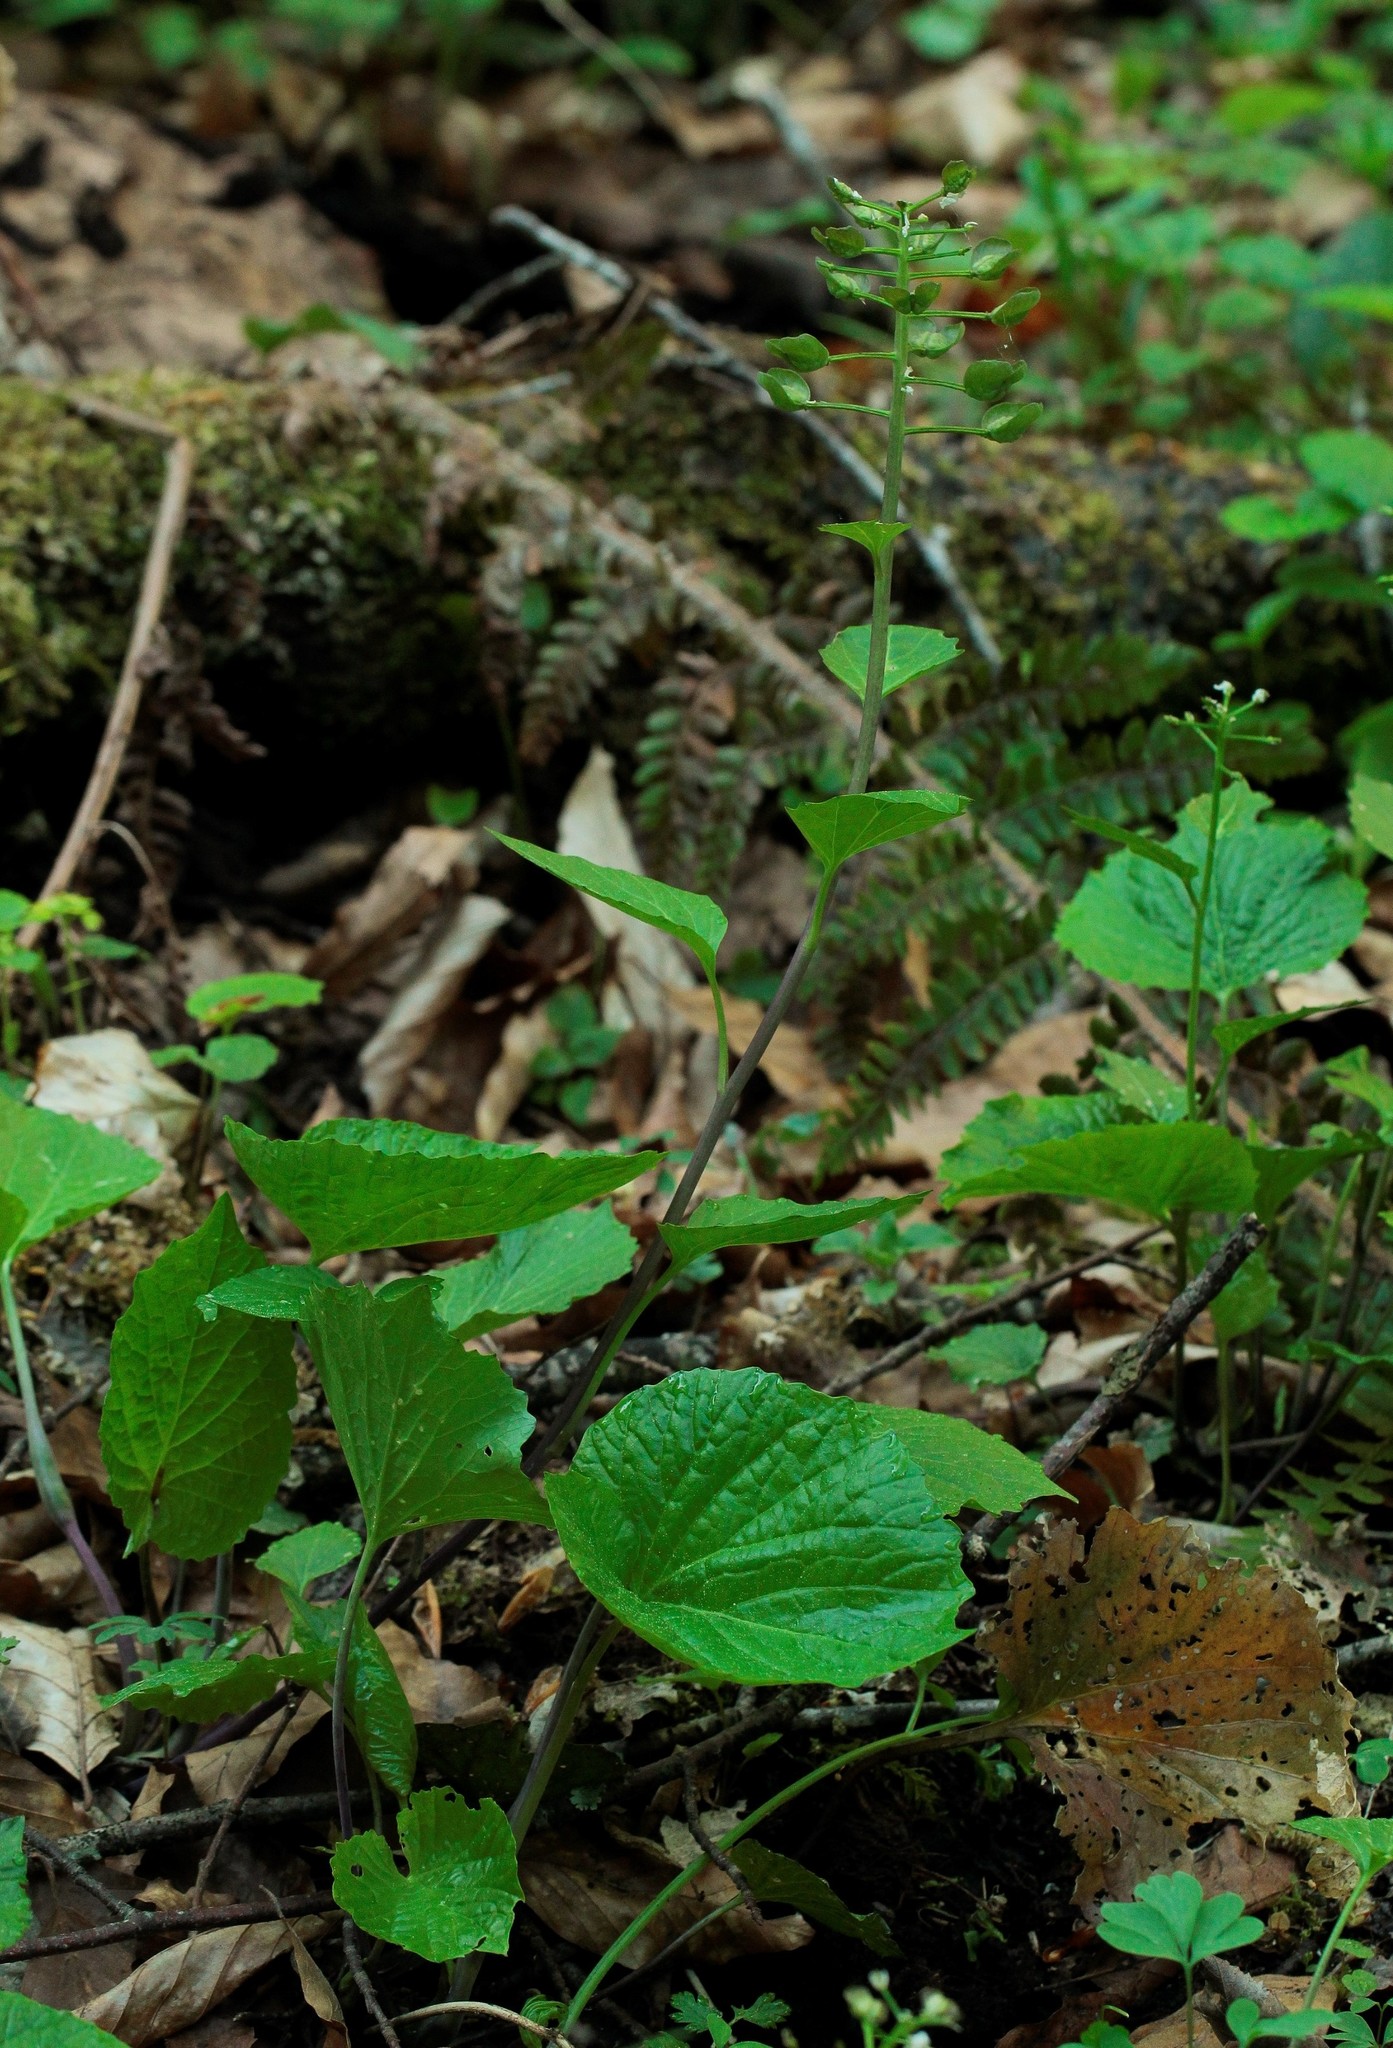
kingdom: Plantae
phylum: Tracheophyta
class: Magnoliopsida
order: Brassicales
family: Brassicaceae
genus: Pachyphragma
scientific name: Pachyphragma macrophyllum
